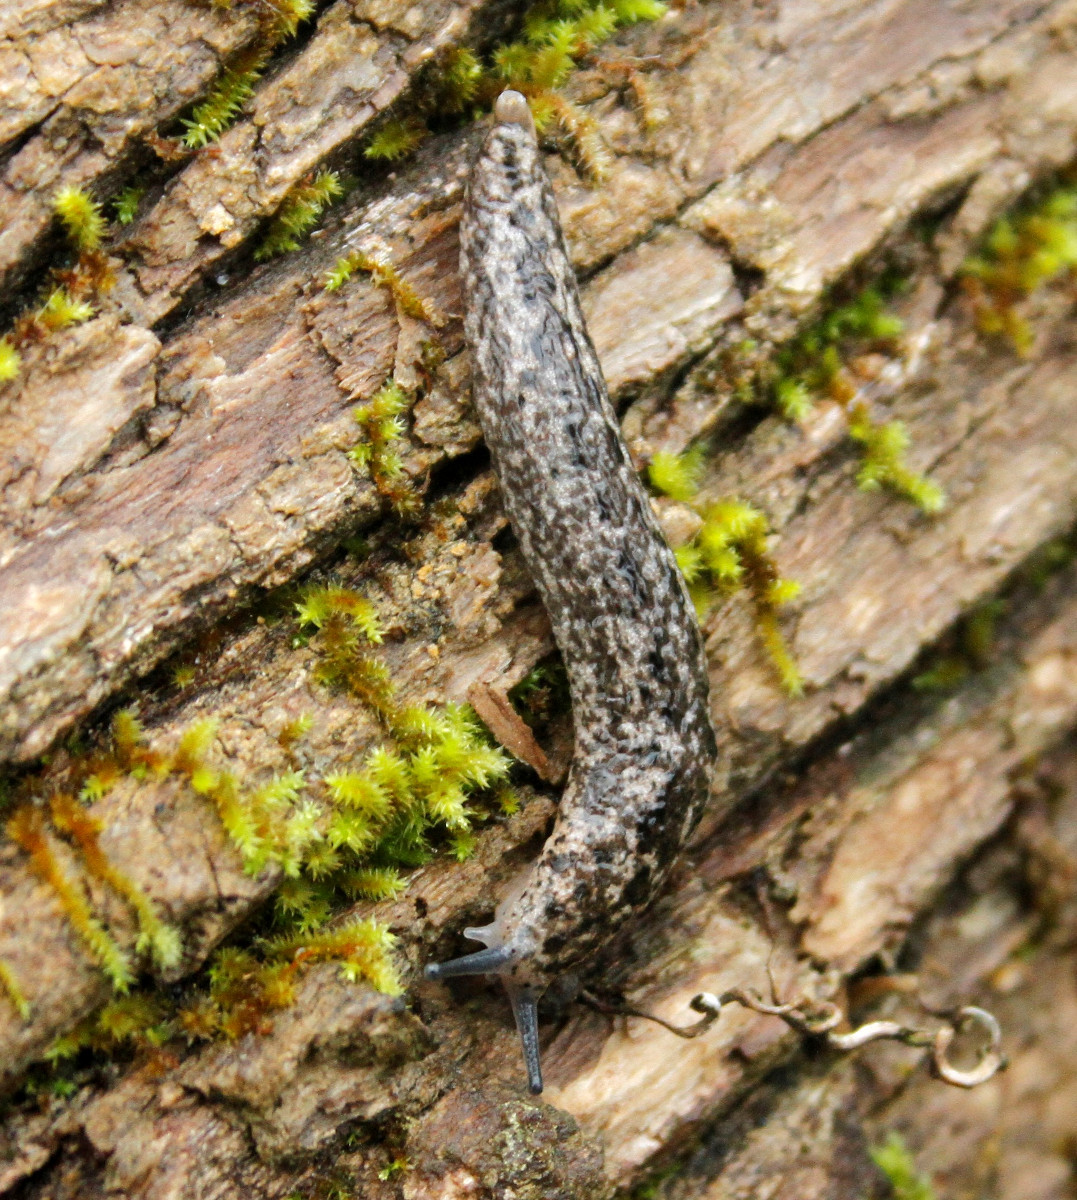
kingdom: Animalia
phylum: Mollusca
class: Gastropoda
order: Stylommatophora
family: Philomycidae
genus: Philomycus
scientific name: Philomycus carolinianus
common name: Carolina mantleslug
